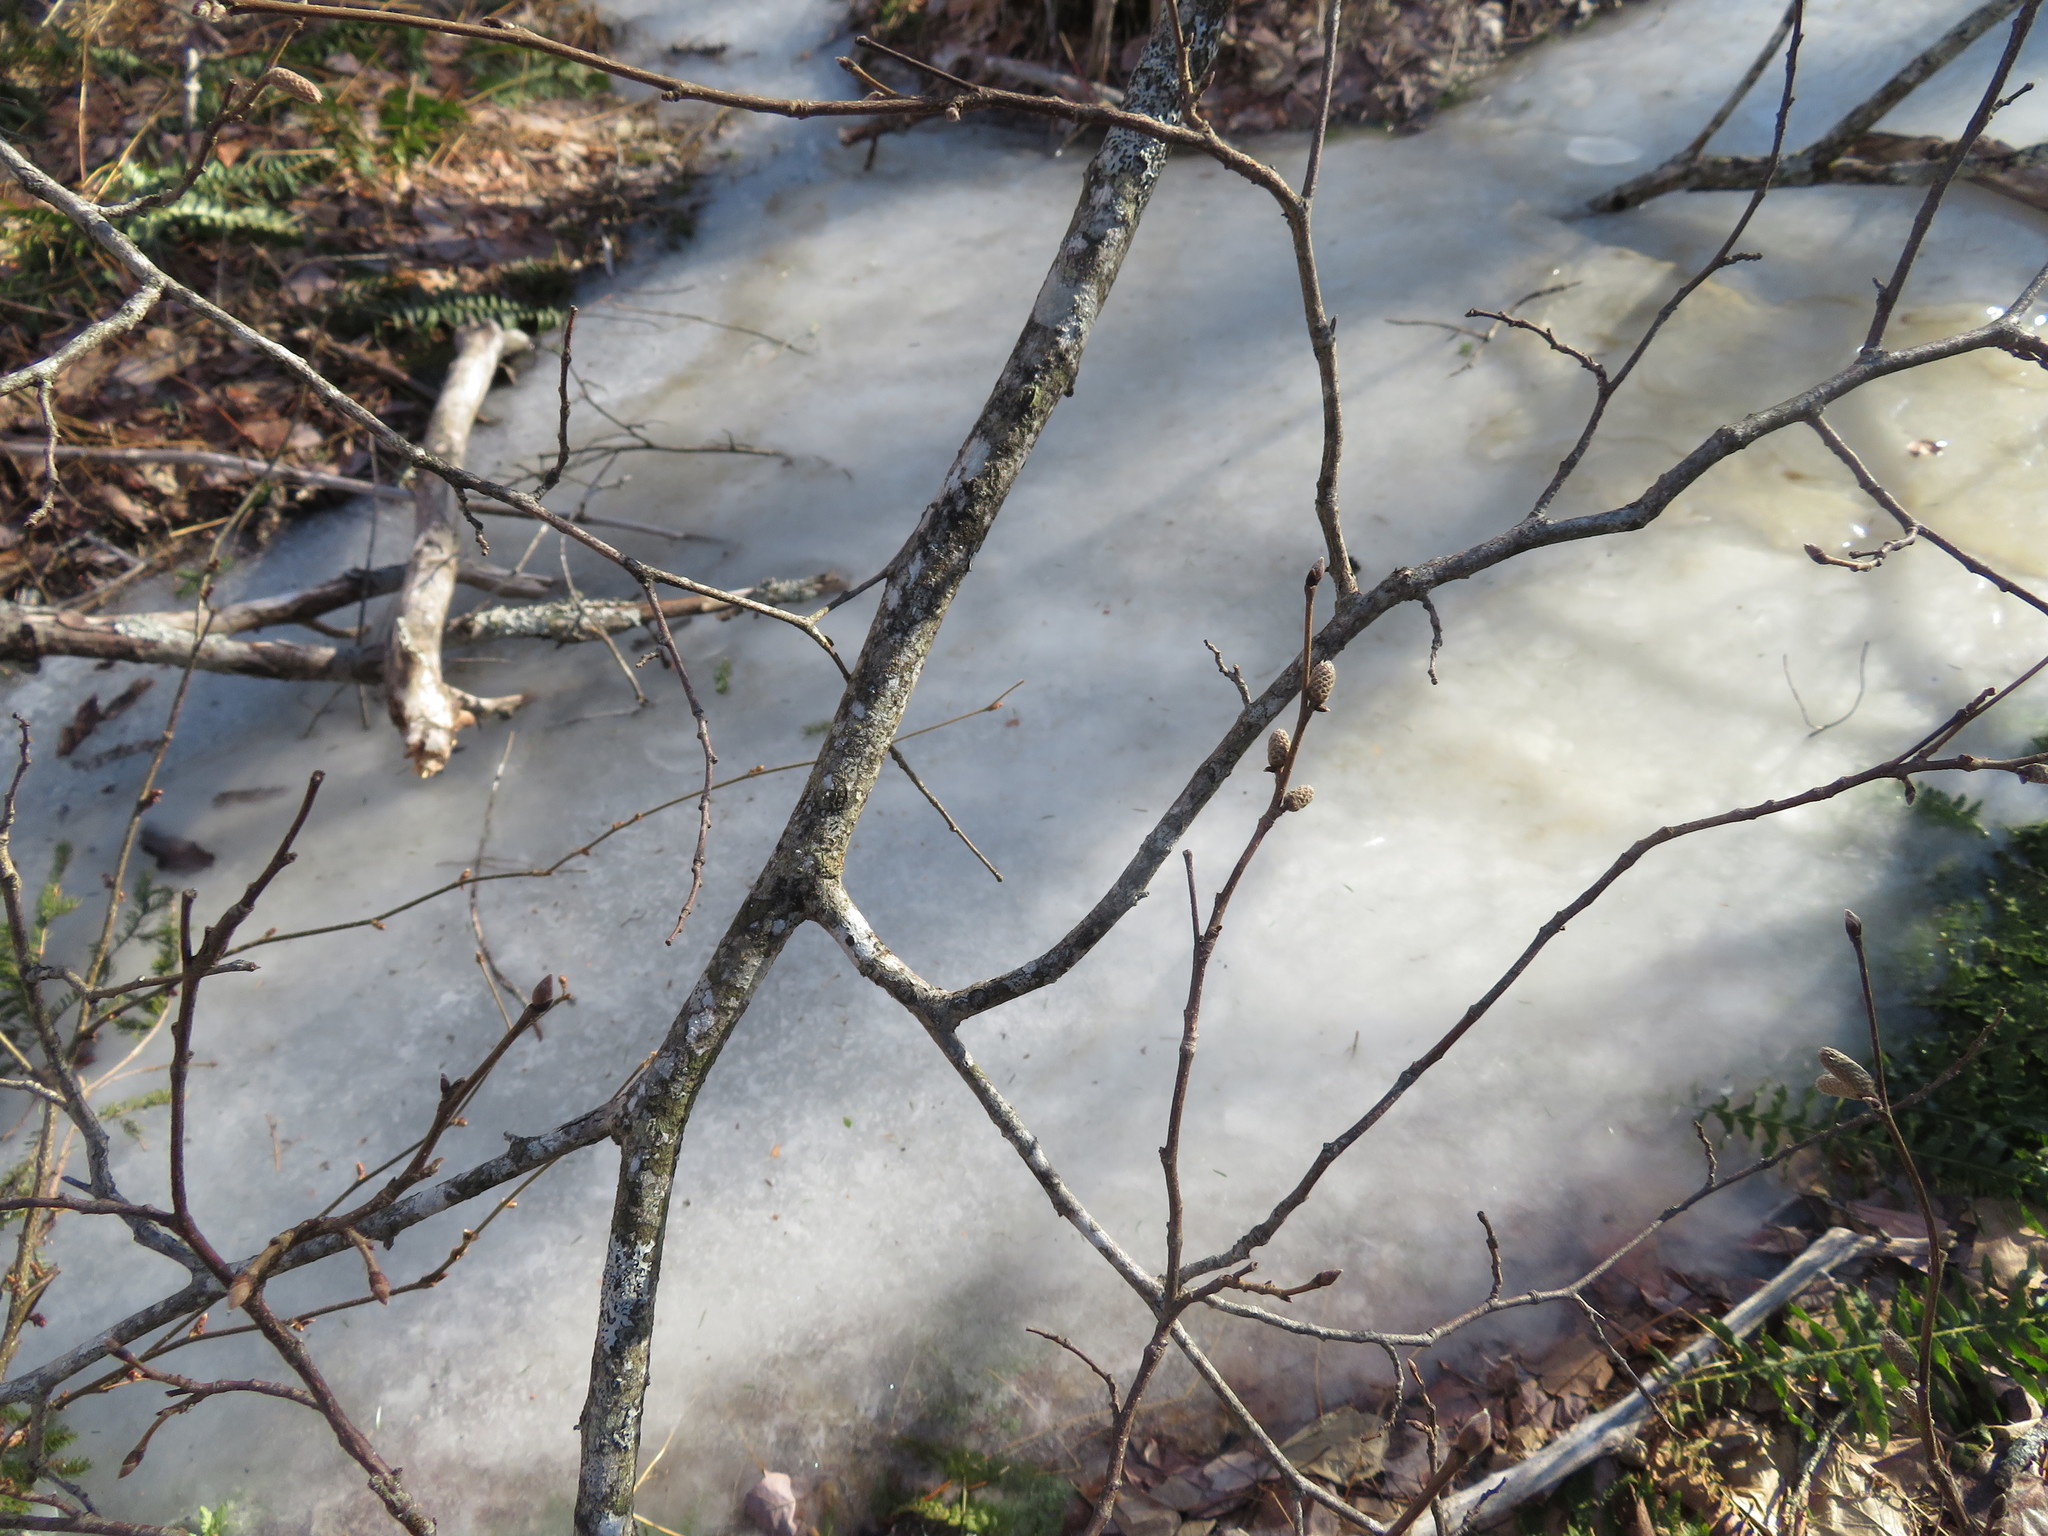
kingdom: Plantae
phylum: Tracheophyta
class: Magnoliopsida
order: Fagales
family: Betulaceae
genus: Corylus
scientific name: Corylus cornuta
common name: Beaked hazel
